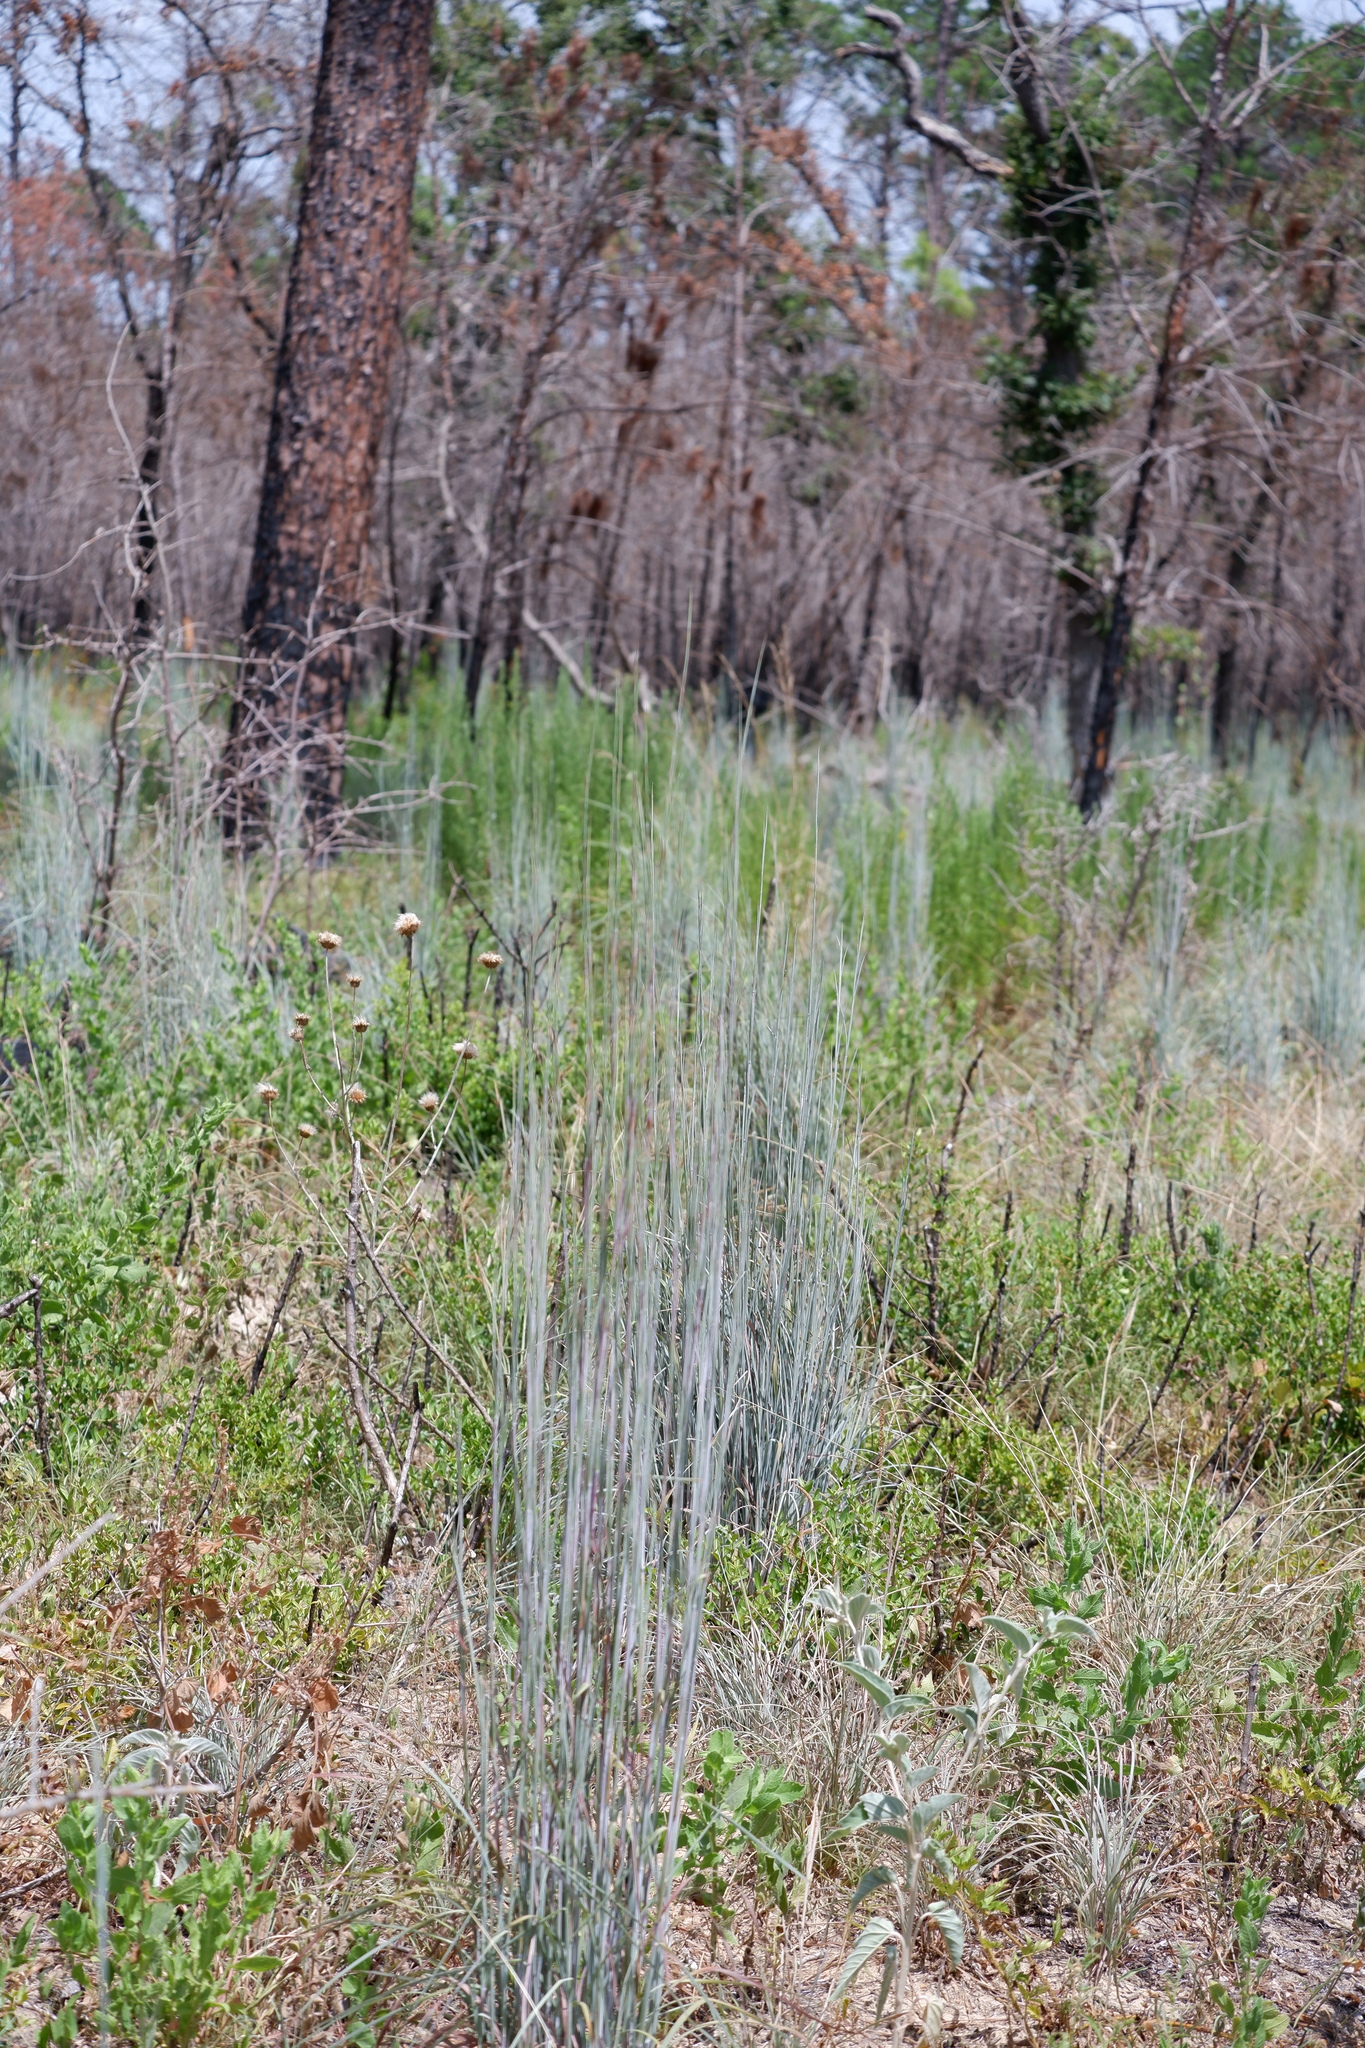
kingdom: Plantae
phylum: Tracheophyta
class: Liliopsida
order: Poales
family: Poaceae
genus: Schizachyrium
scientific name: Schizachyrium scoparium
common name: Little bluestem
